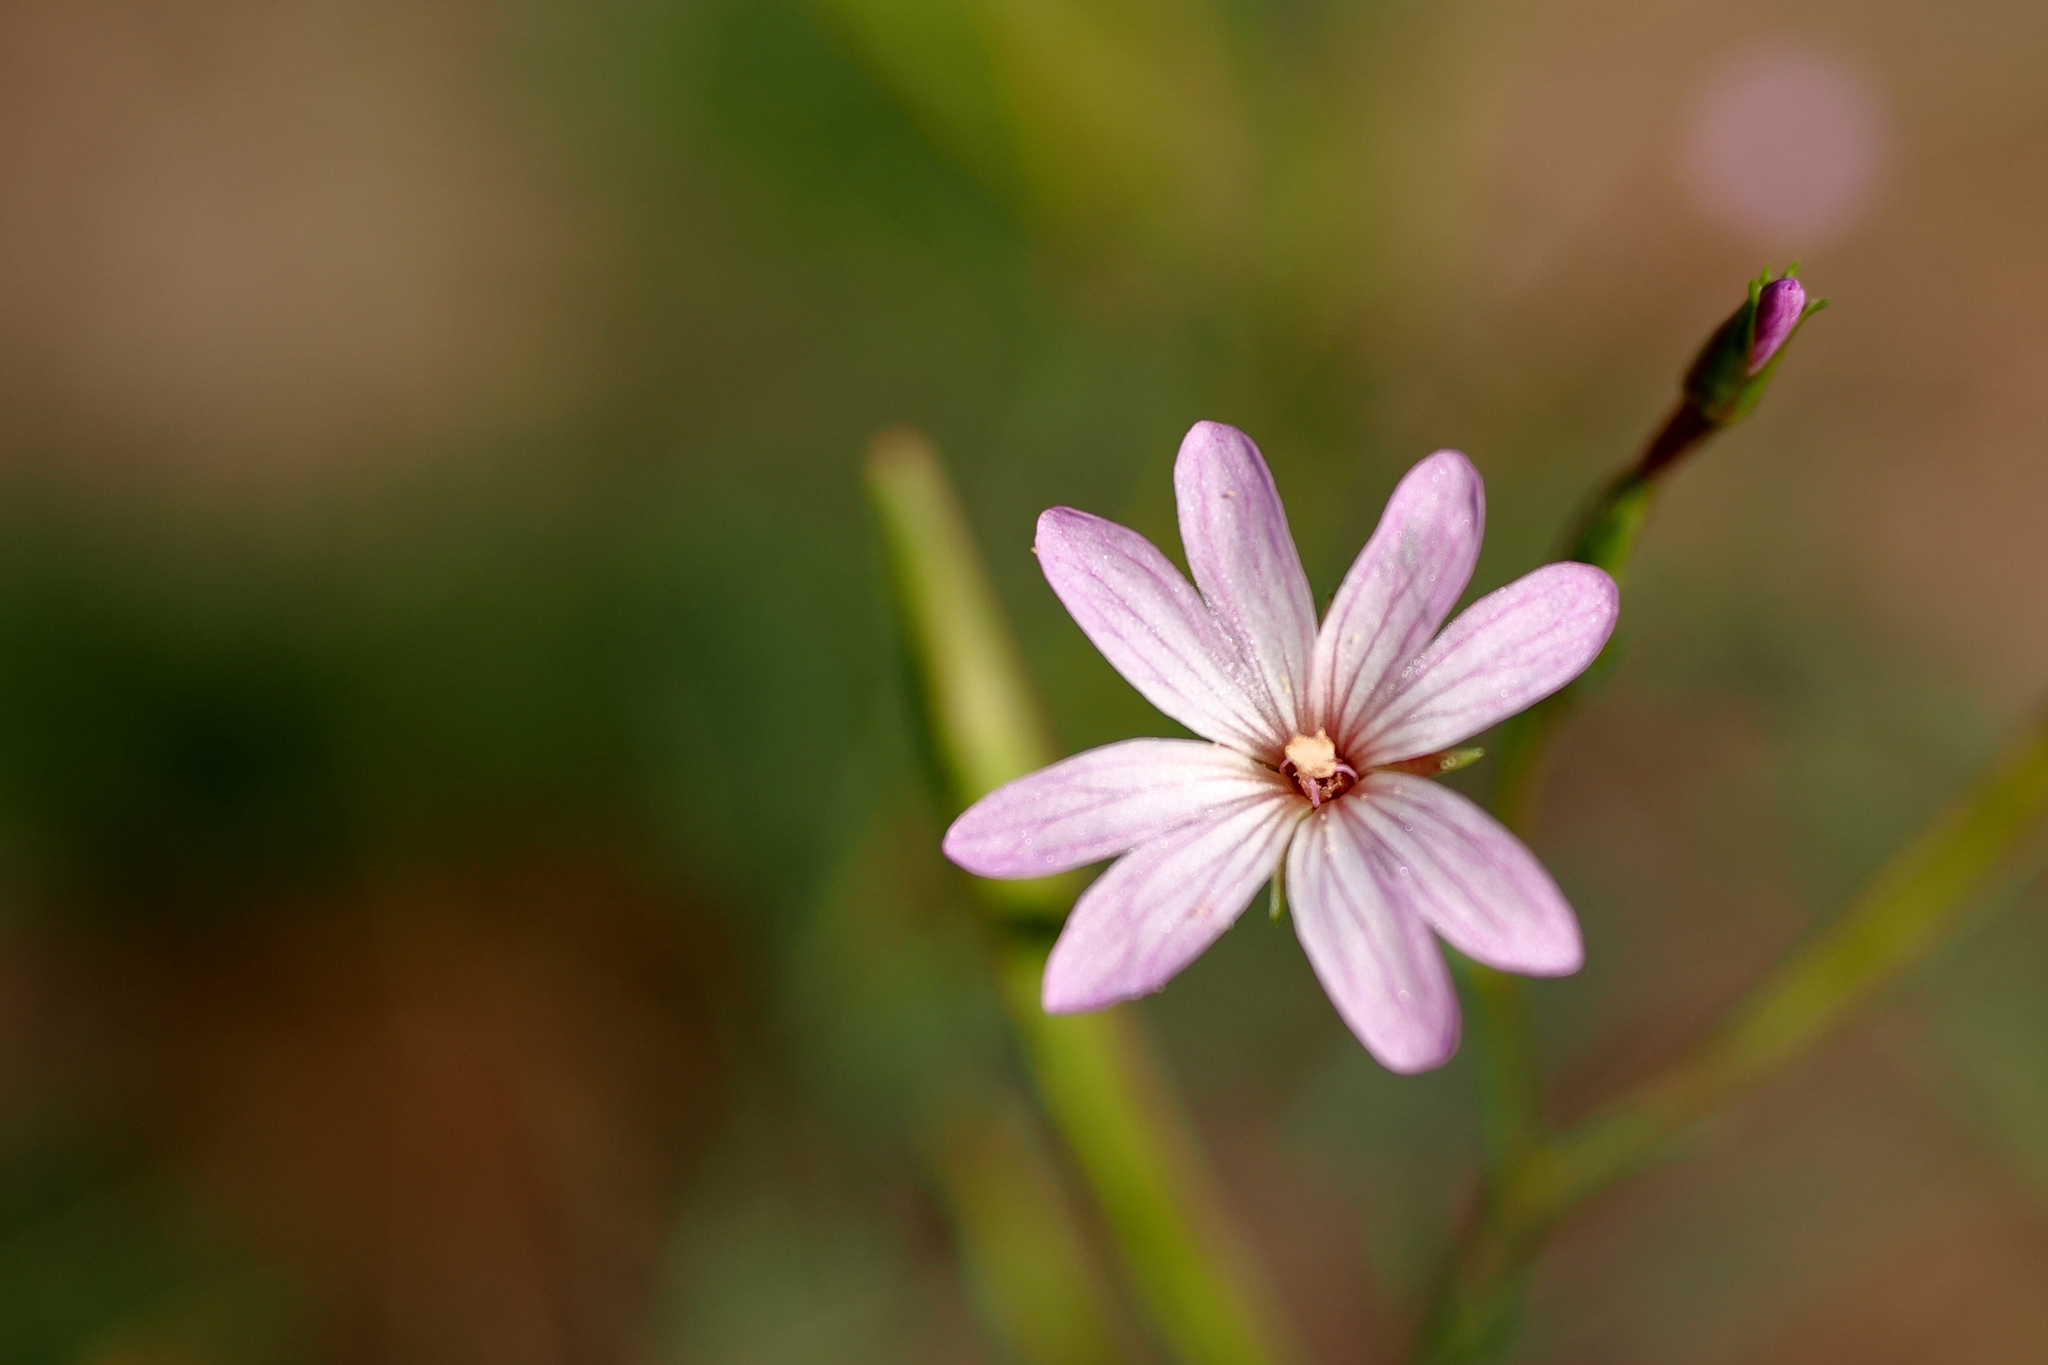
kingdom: Plantae
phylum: Tracheophyta
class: Magnoliopsida
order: Myrtales
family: Onagraceae
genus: Epilobium
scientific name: Epilobium brachycarpum
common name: Annual willowherb
